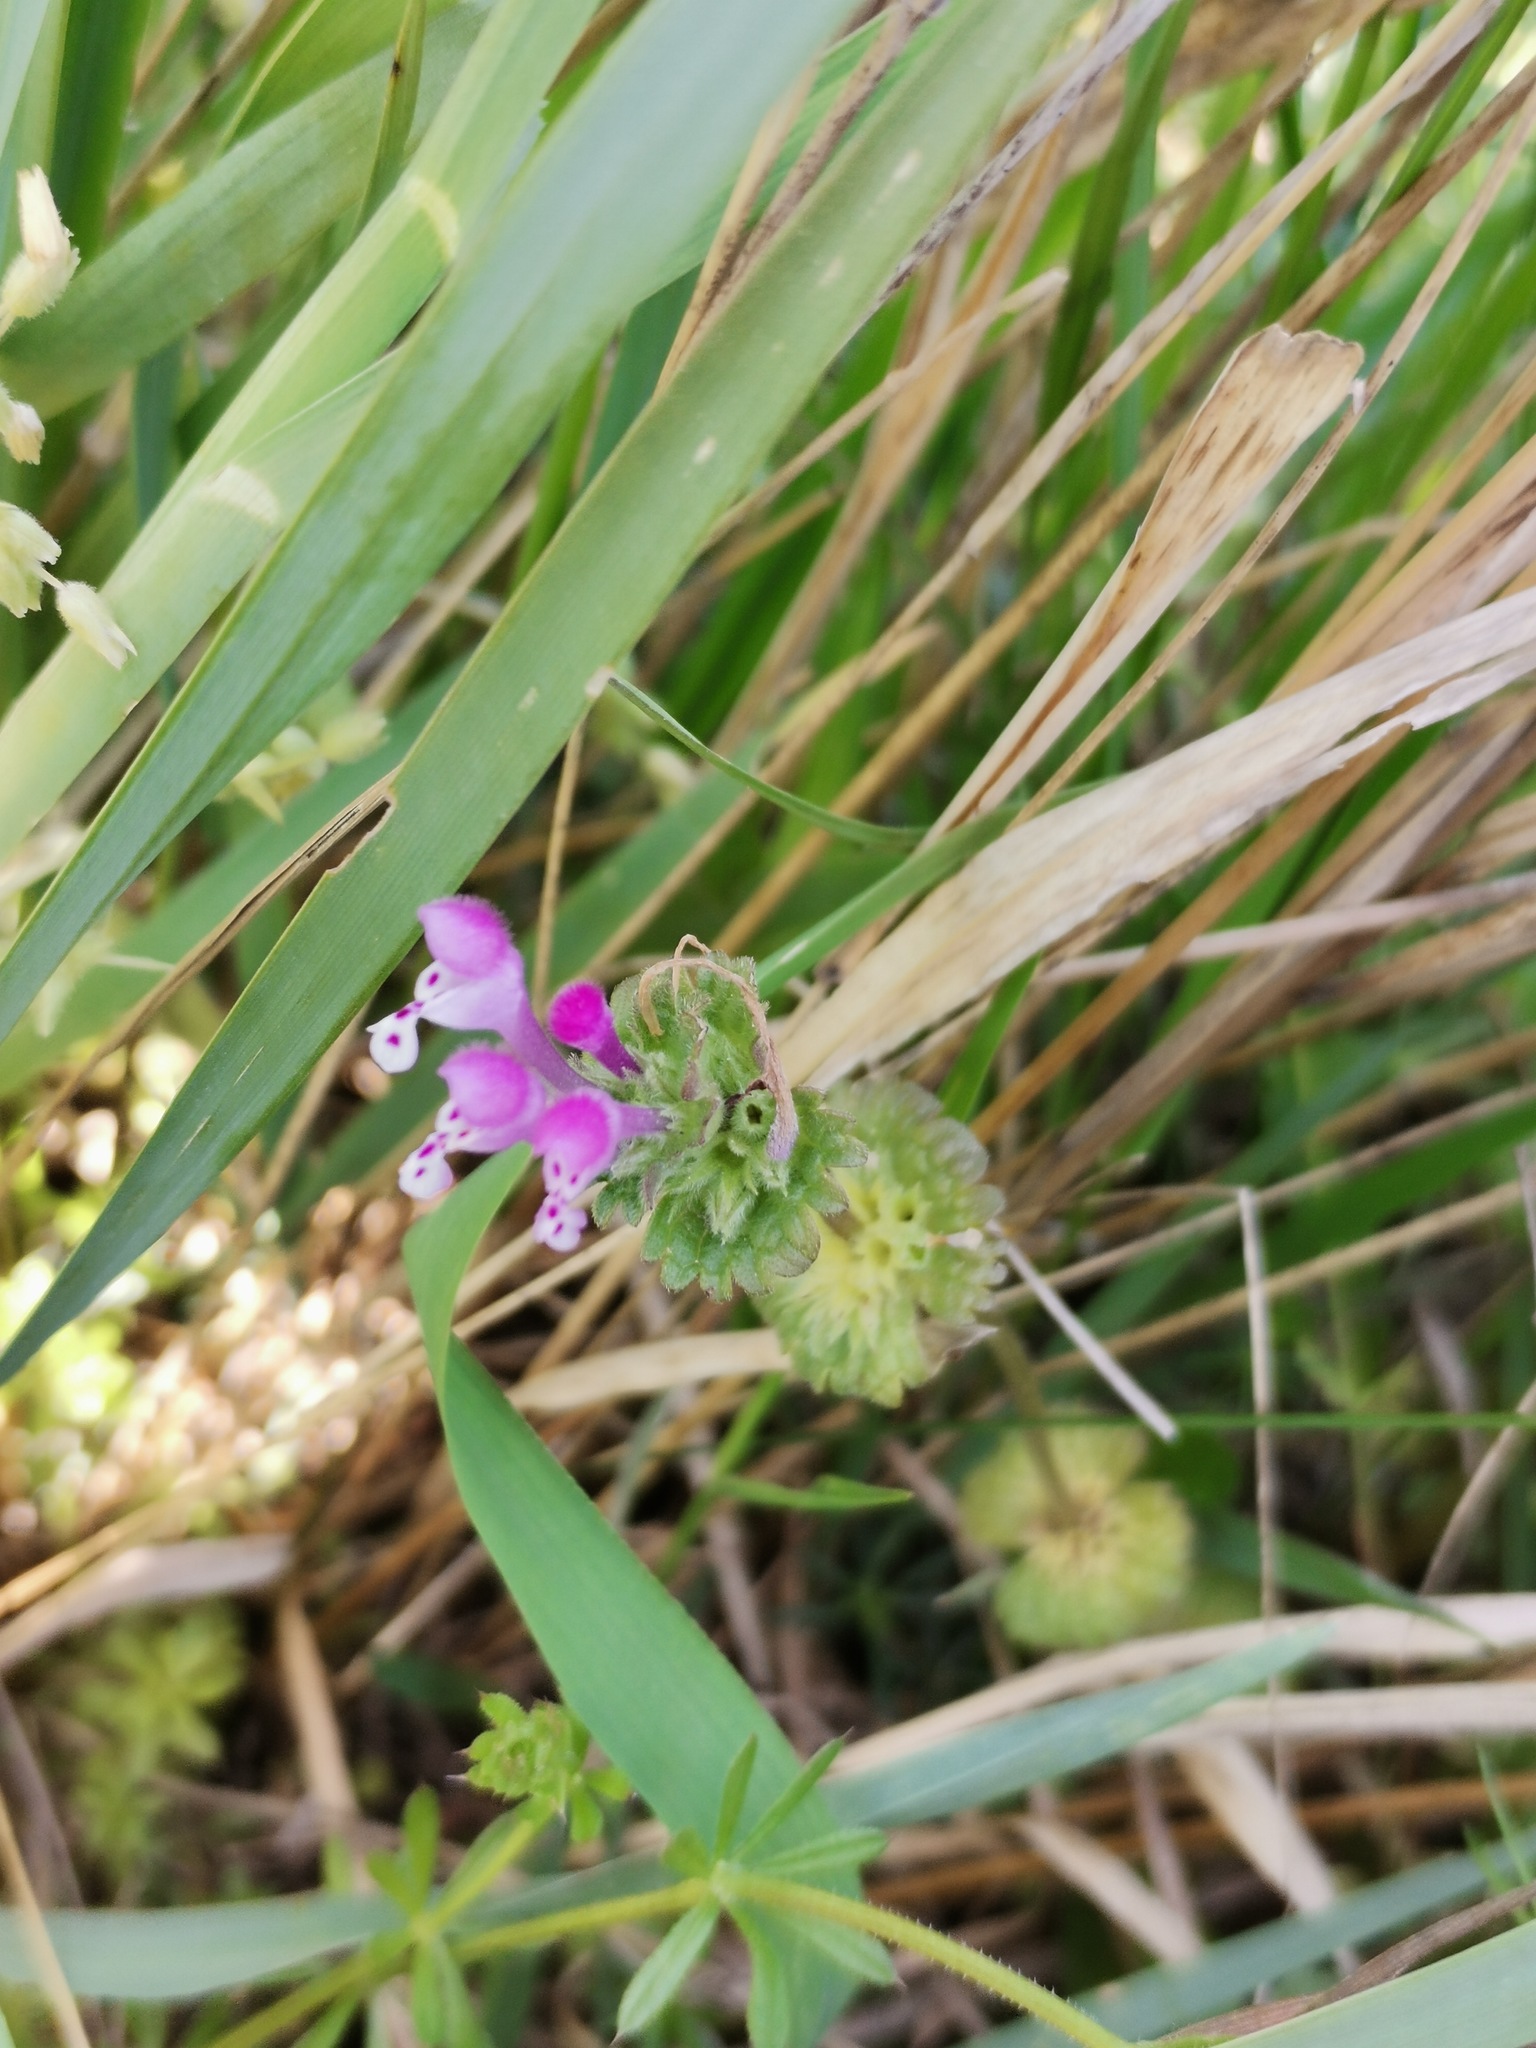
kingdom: Plantae
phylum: Tracheophyta
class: Magnoliopsida
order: Lamiales
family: Lamiaceae
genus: Lamium
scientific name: Lamium amplexicaule
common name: Henbit dead-nettle
